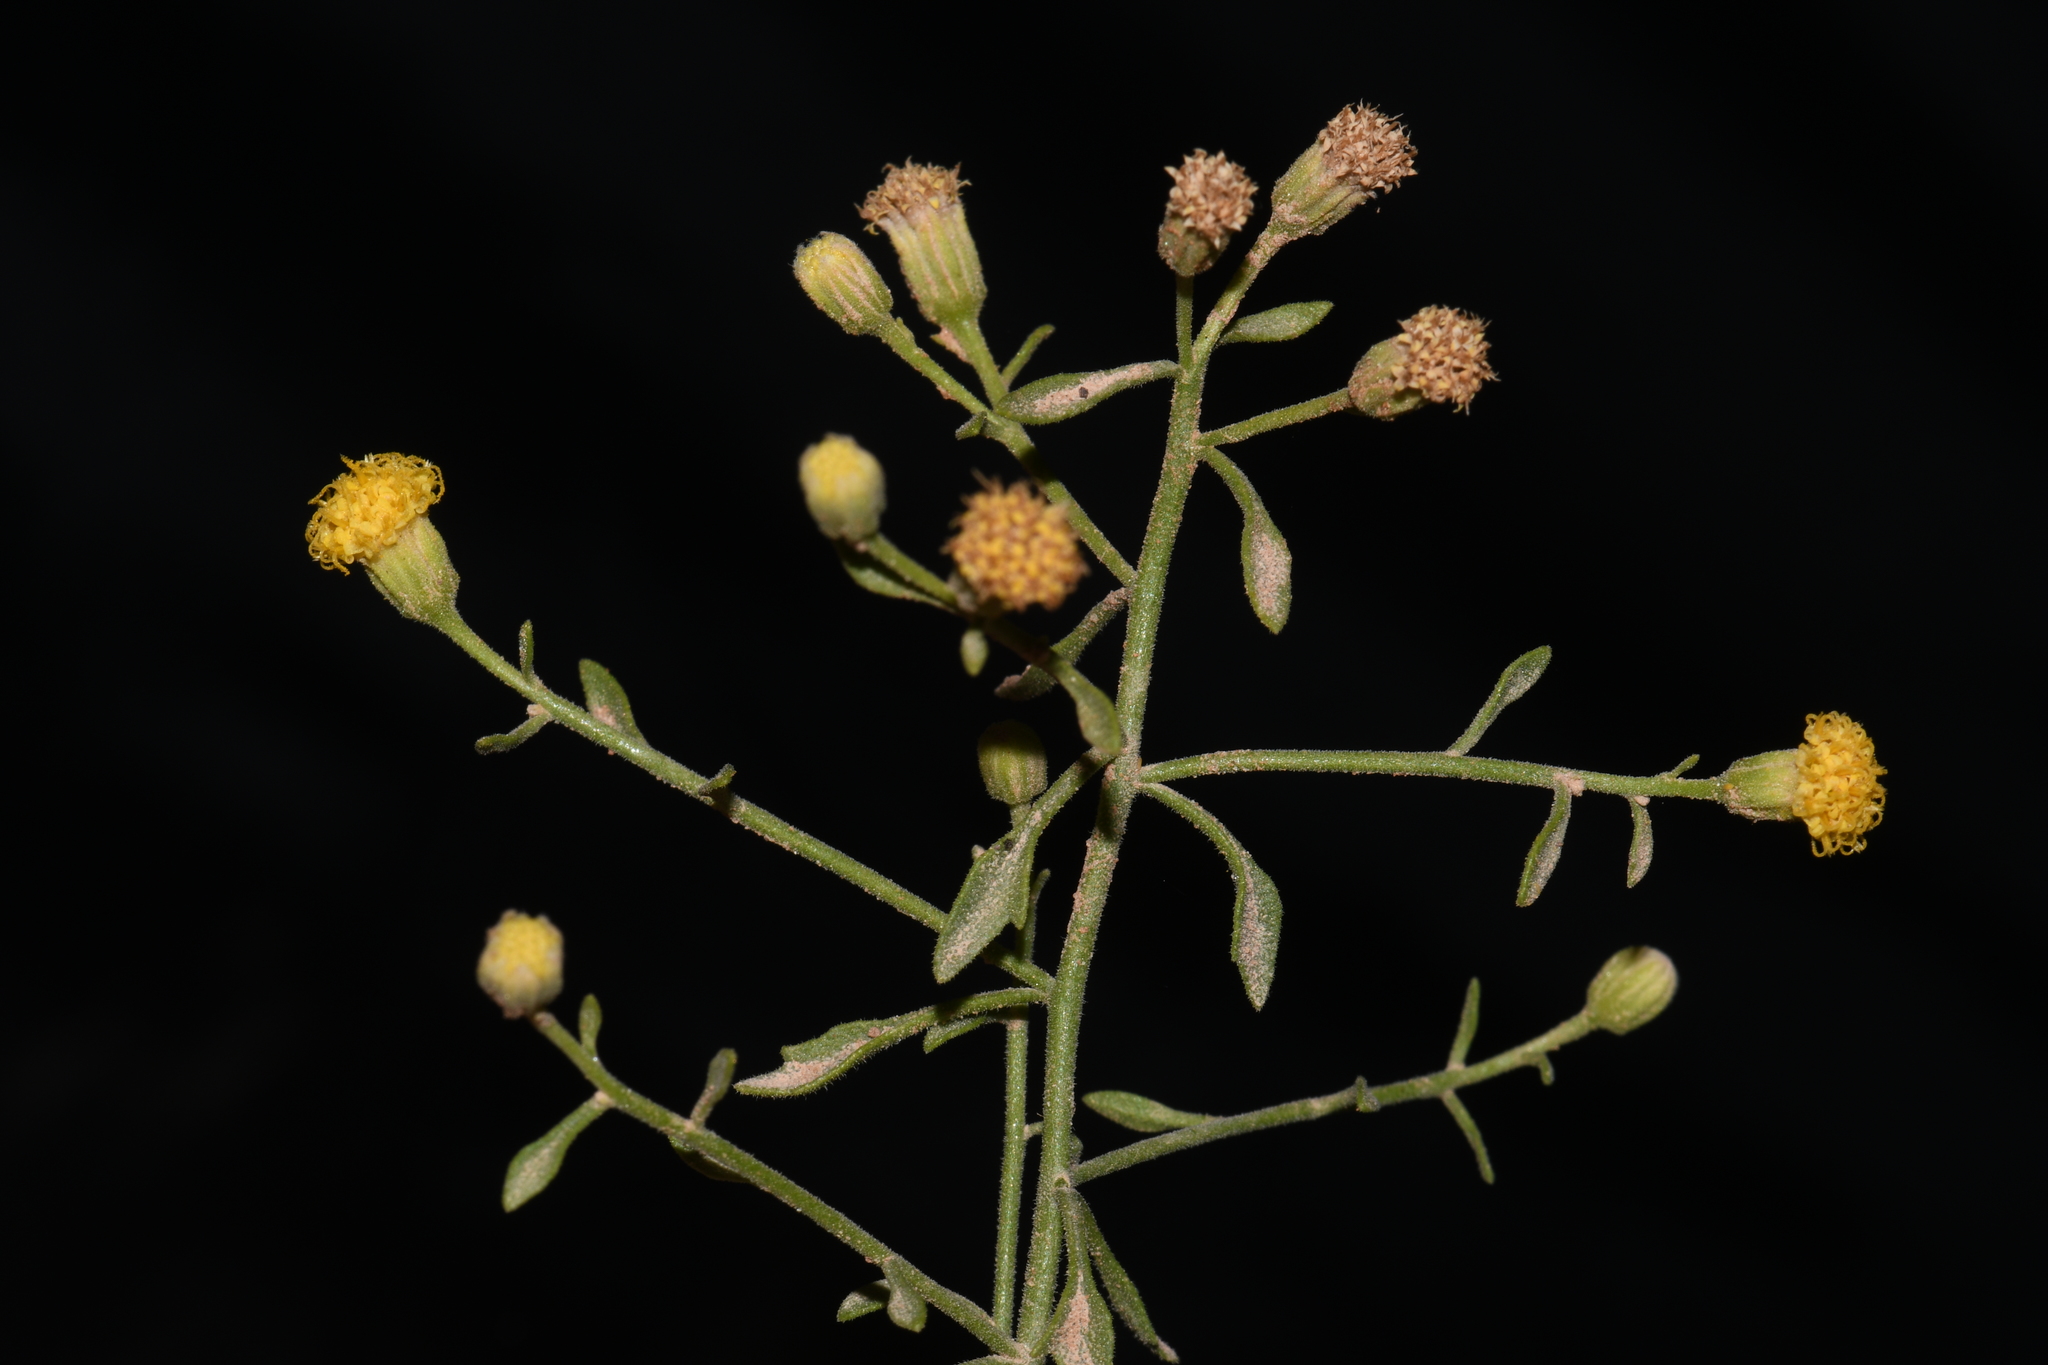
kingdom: Plantae
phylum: Tracheophyta
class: Magnoliopsida
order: Asterales
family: Asteraceae
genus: Laphamia
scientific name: Laphamia congesta
